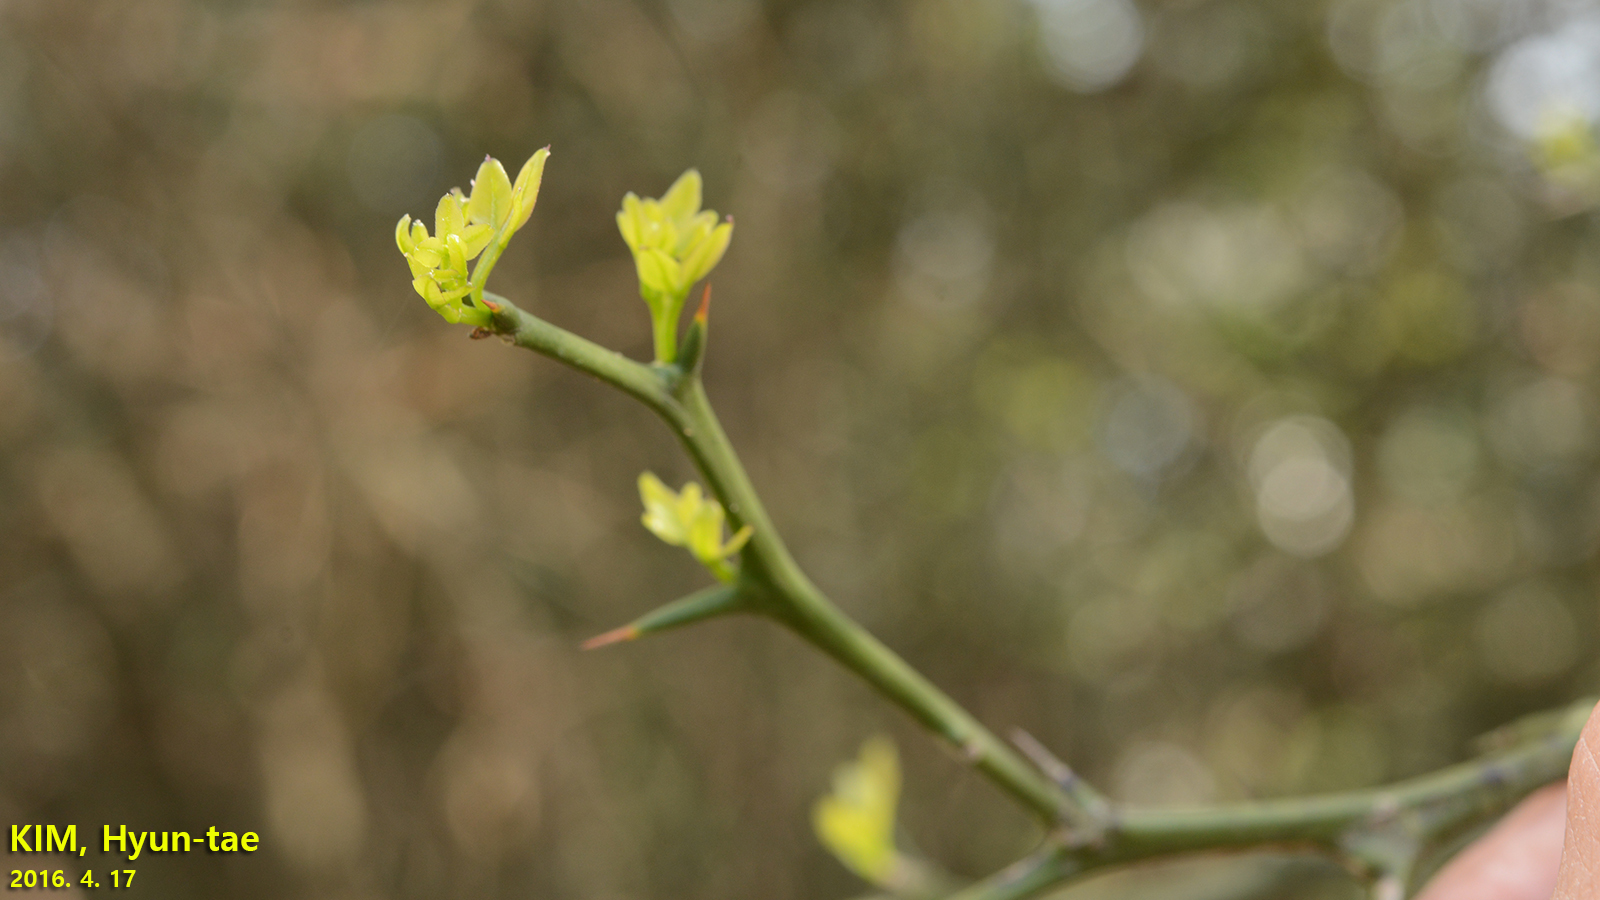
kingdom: Plantae
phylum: Tracheophyta
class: Magnoliopsida
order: Sapindales
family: Rutaceae
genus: Citrus
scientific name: Citrus trifoliata
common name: Japanese bitter-orange
